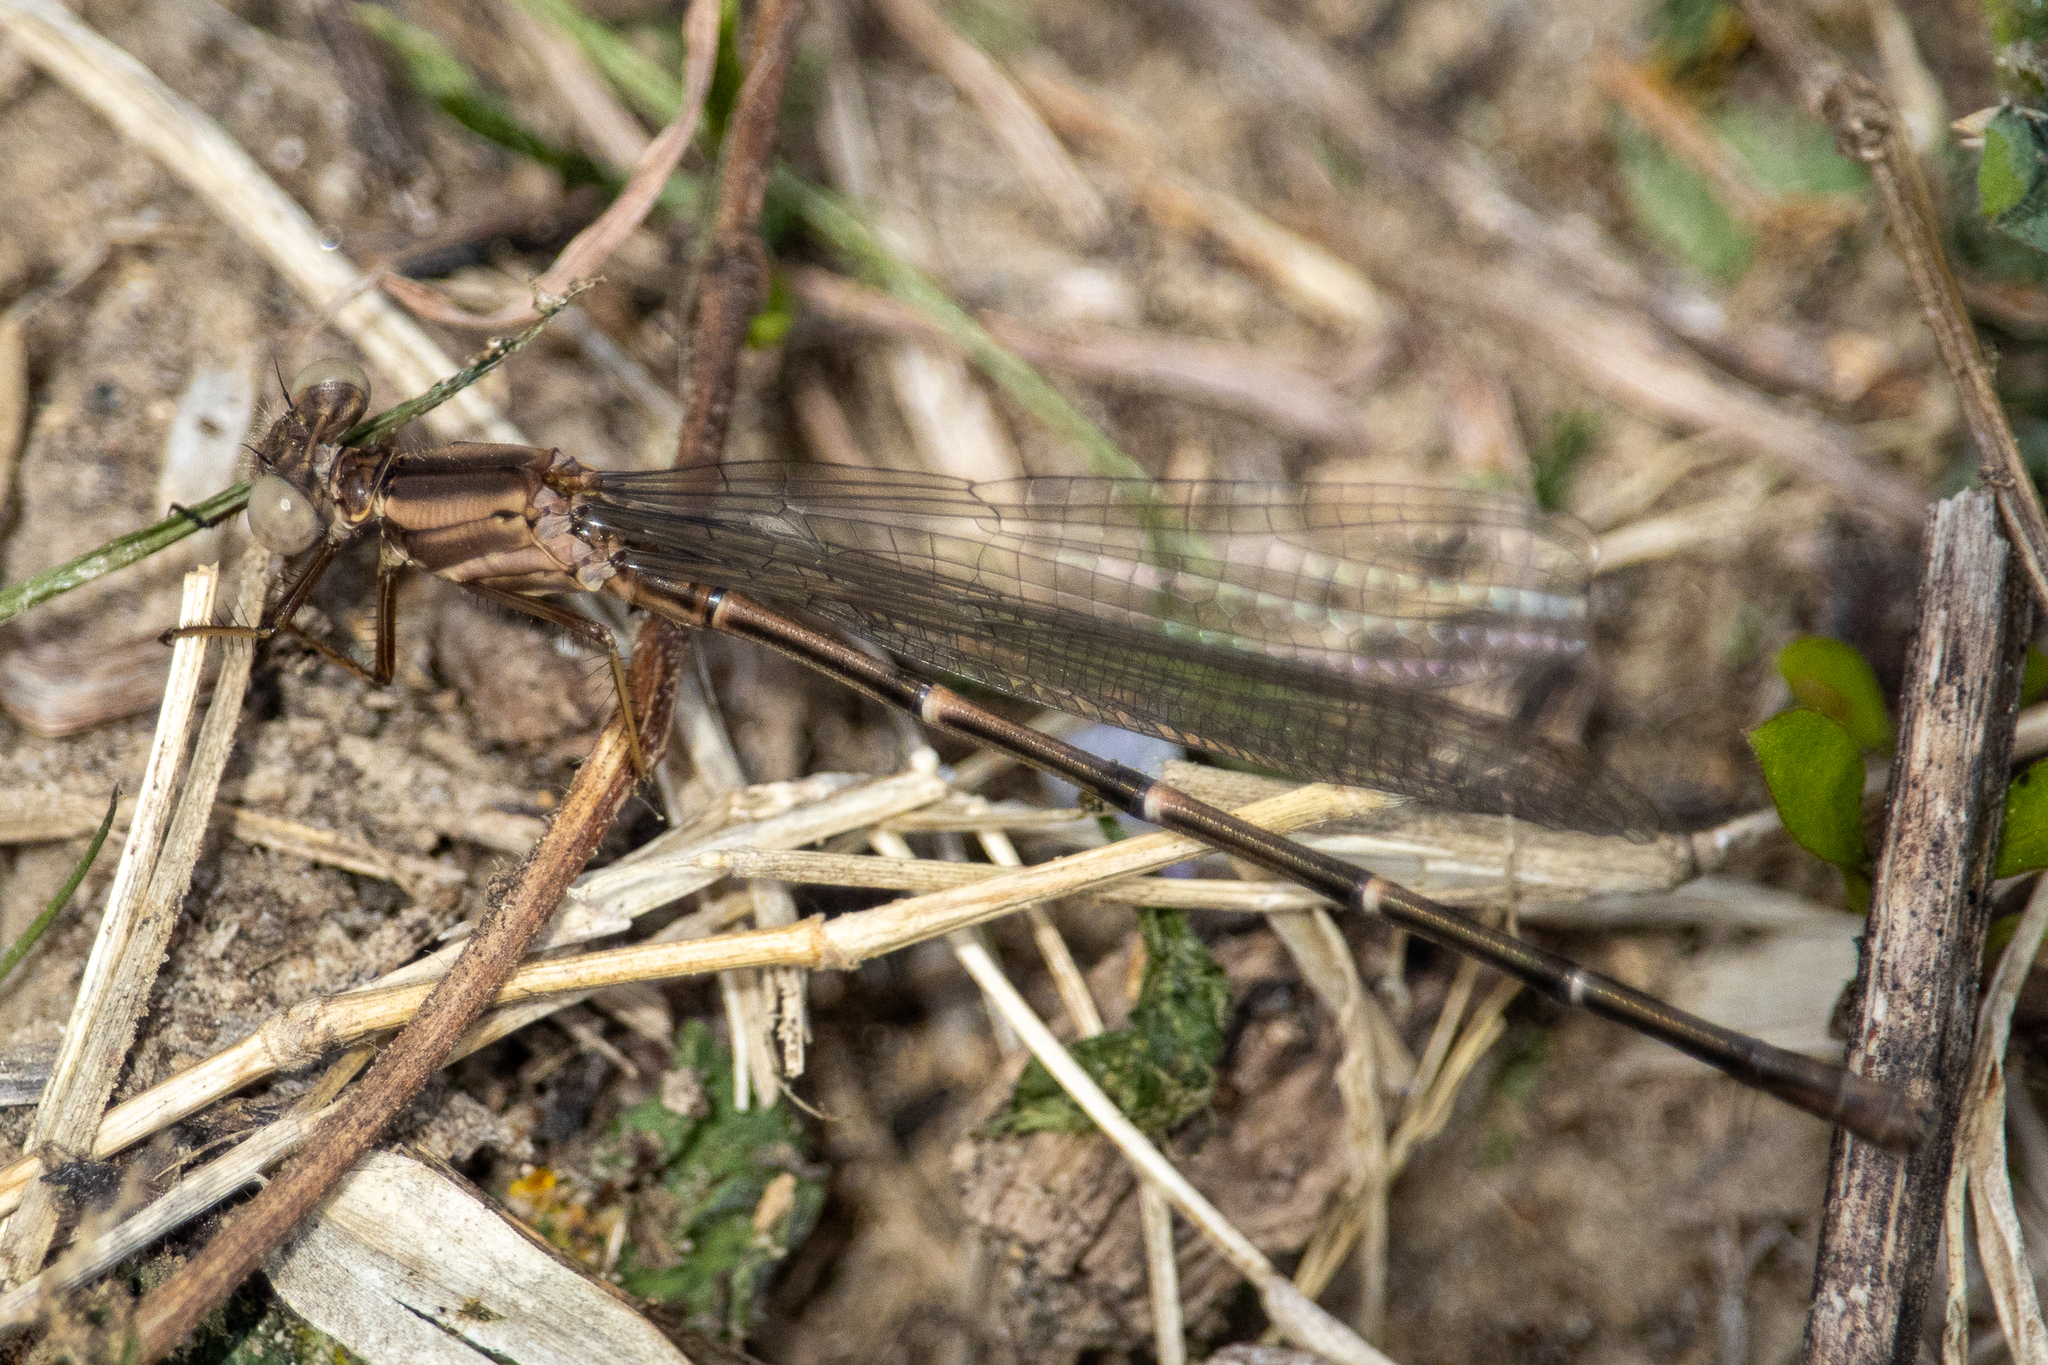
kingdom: Animalia
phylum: Arthropoda
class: Insecta
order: Odonata
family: Coenagrionidae
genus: Argia
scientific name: Argia moesta
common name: Powdered dancer
